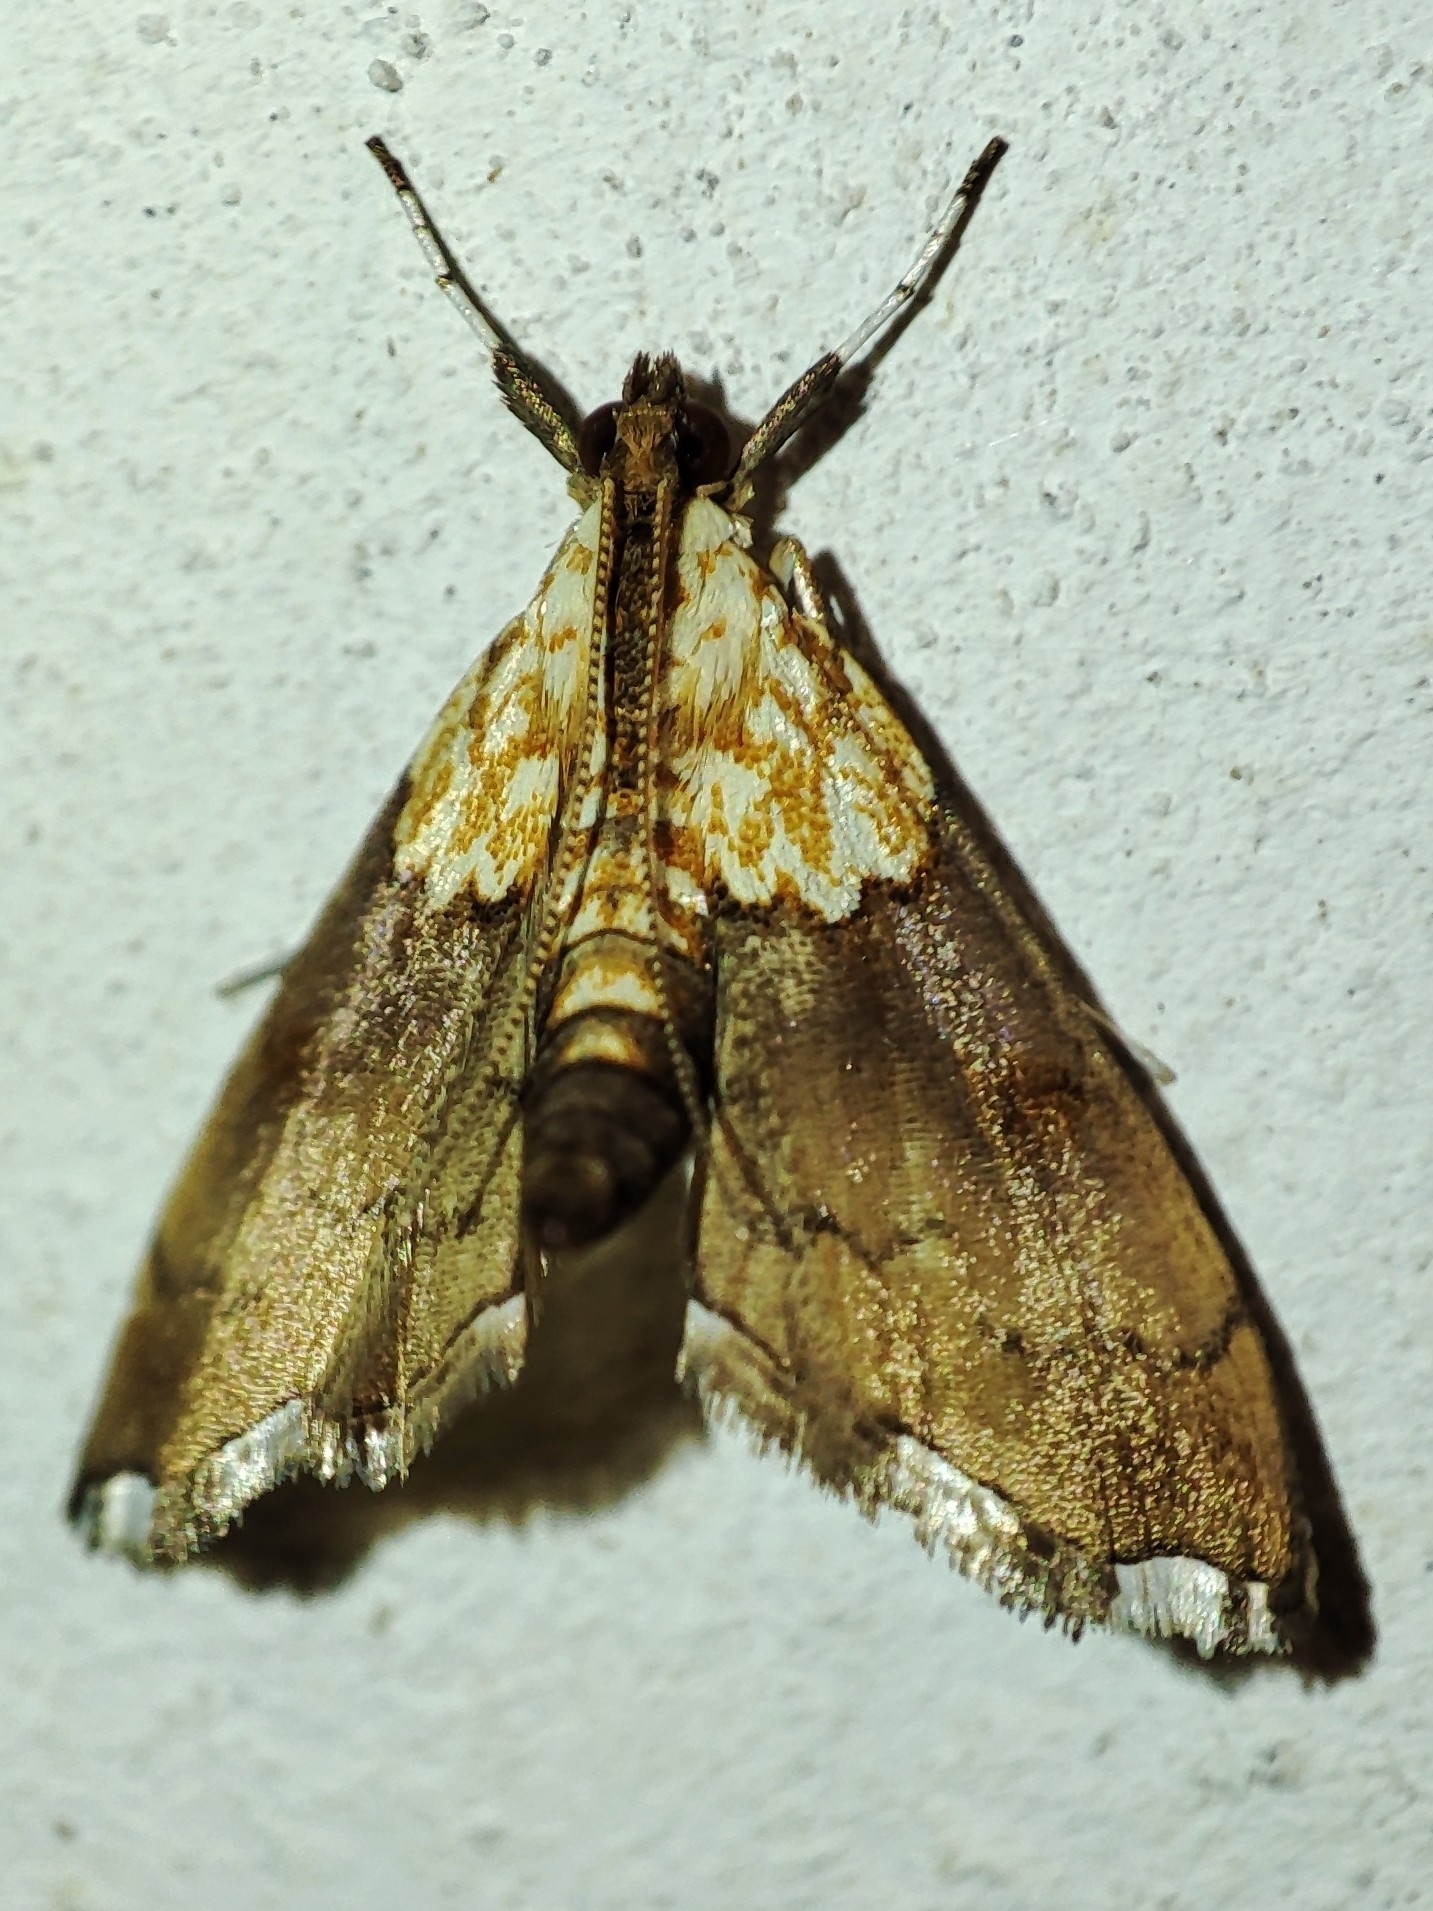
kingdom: Animalia
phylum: Arthropoda
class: Insecta
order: Lepidoptera
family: Crambidae
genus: Agrotera
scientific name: Agrotera nemoralis
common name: Beautiful pearl
